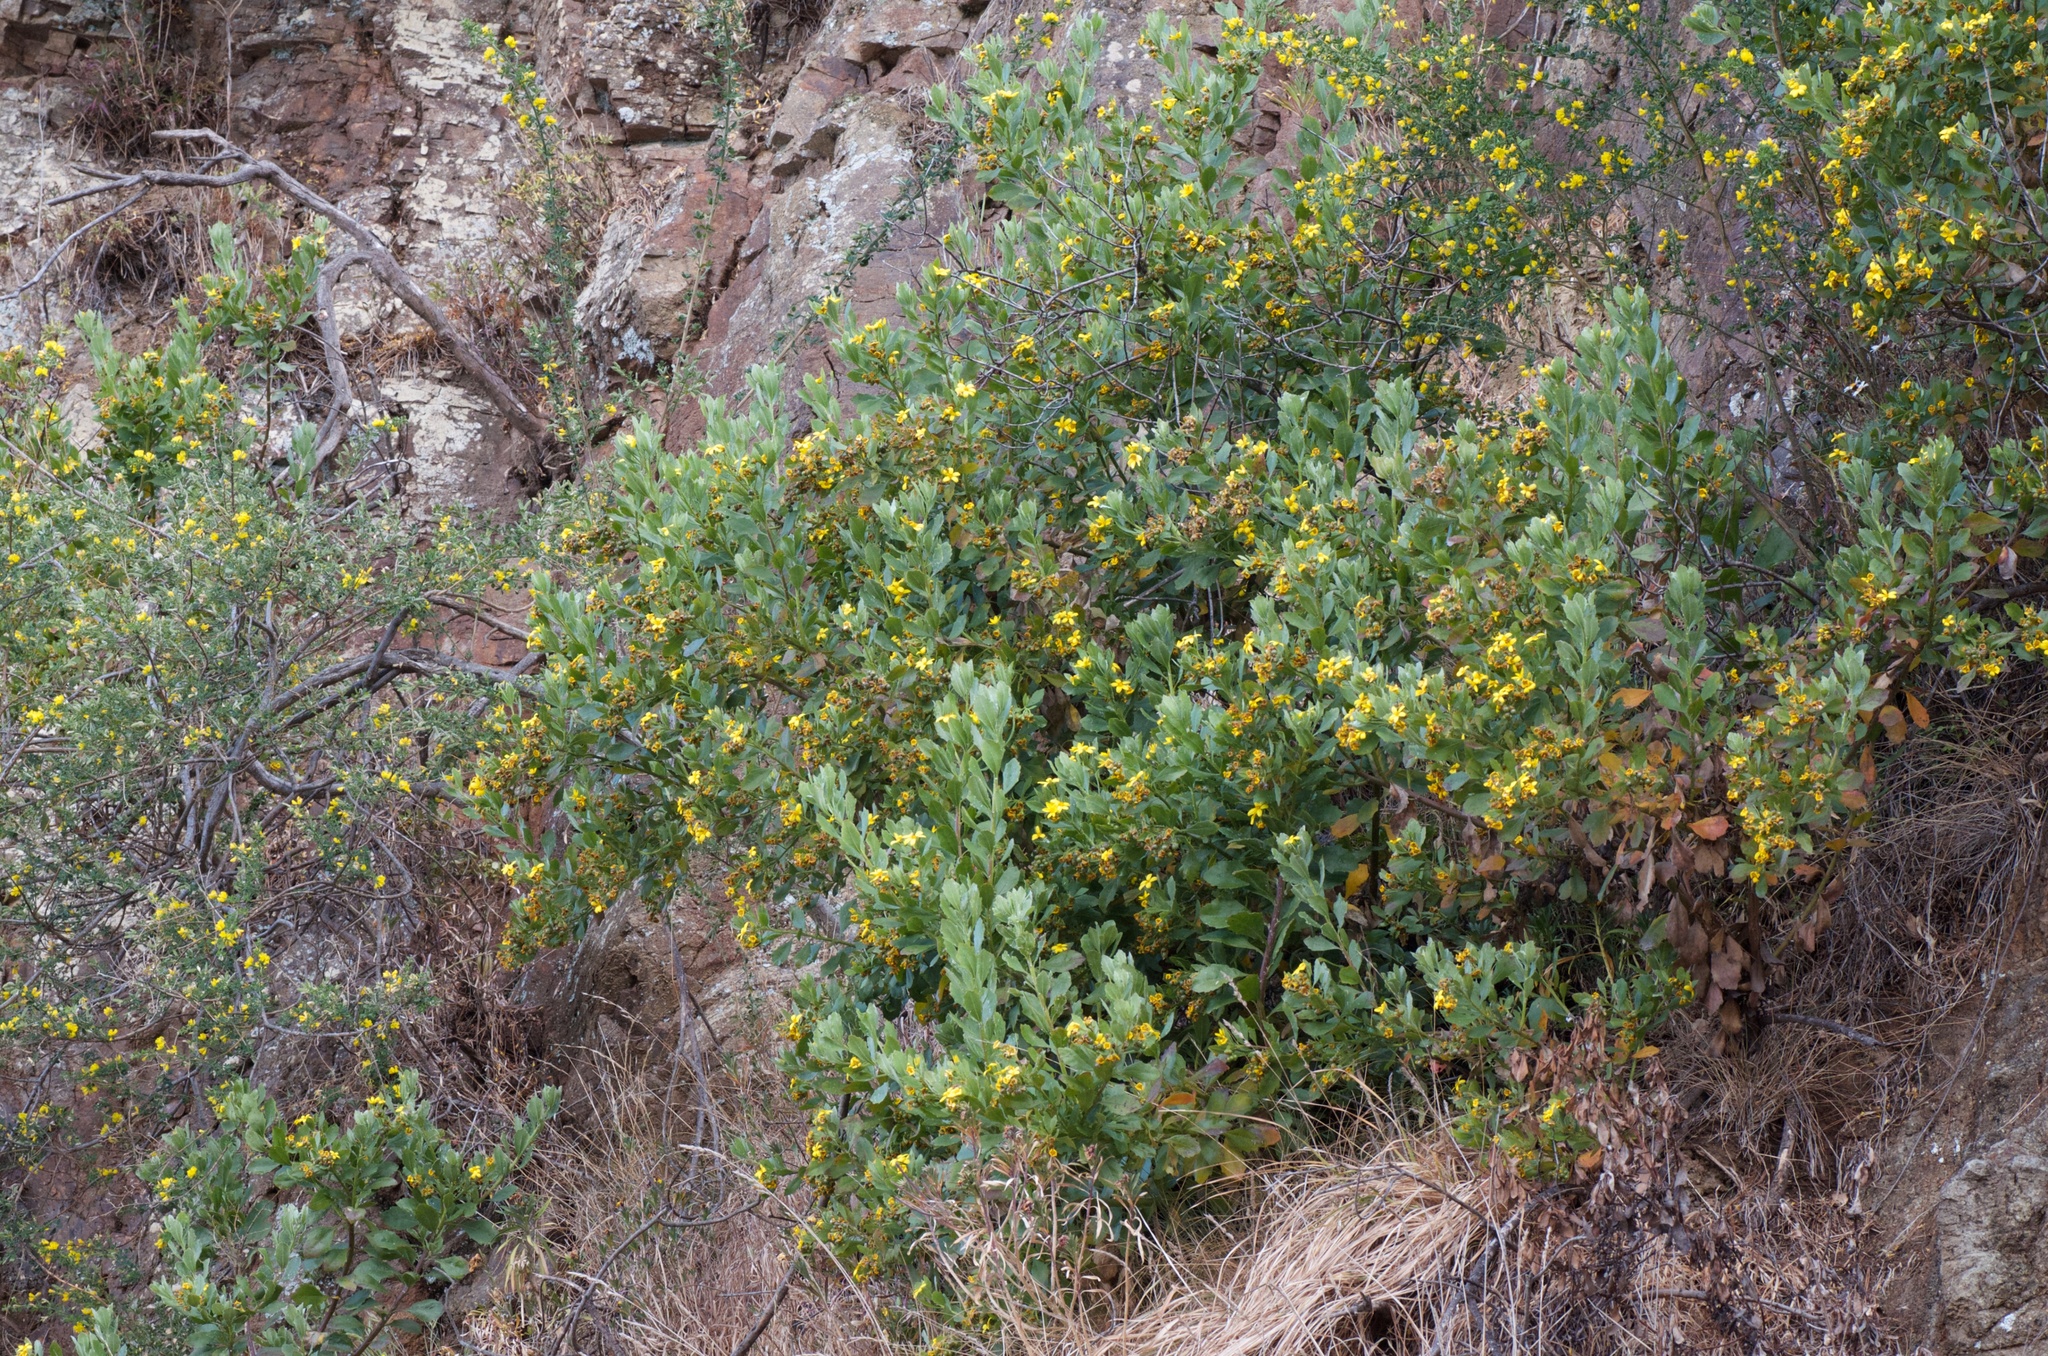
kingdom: Plantae
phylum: Tracheophyta
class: Magnoliopsida
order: Asterales
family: Asteraceae
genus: Osteospermum
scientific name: Osteospermum moniliferum
